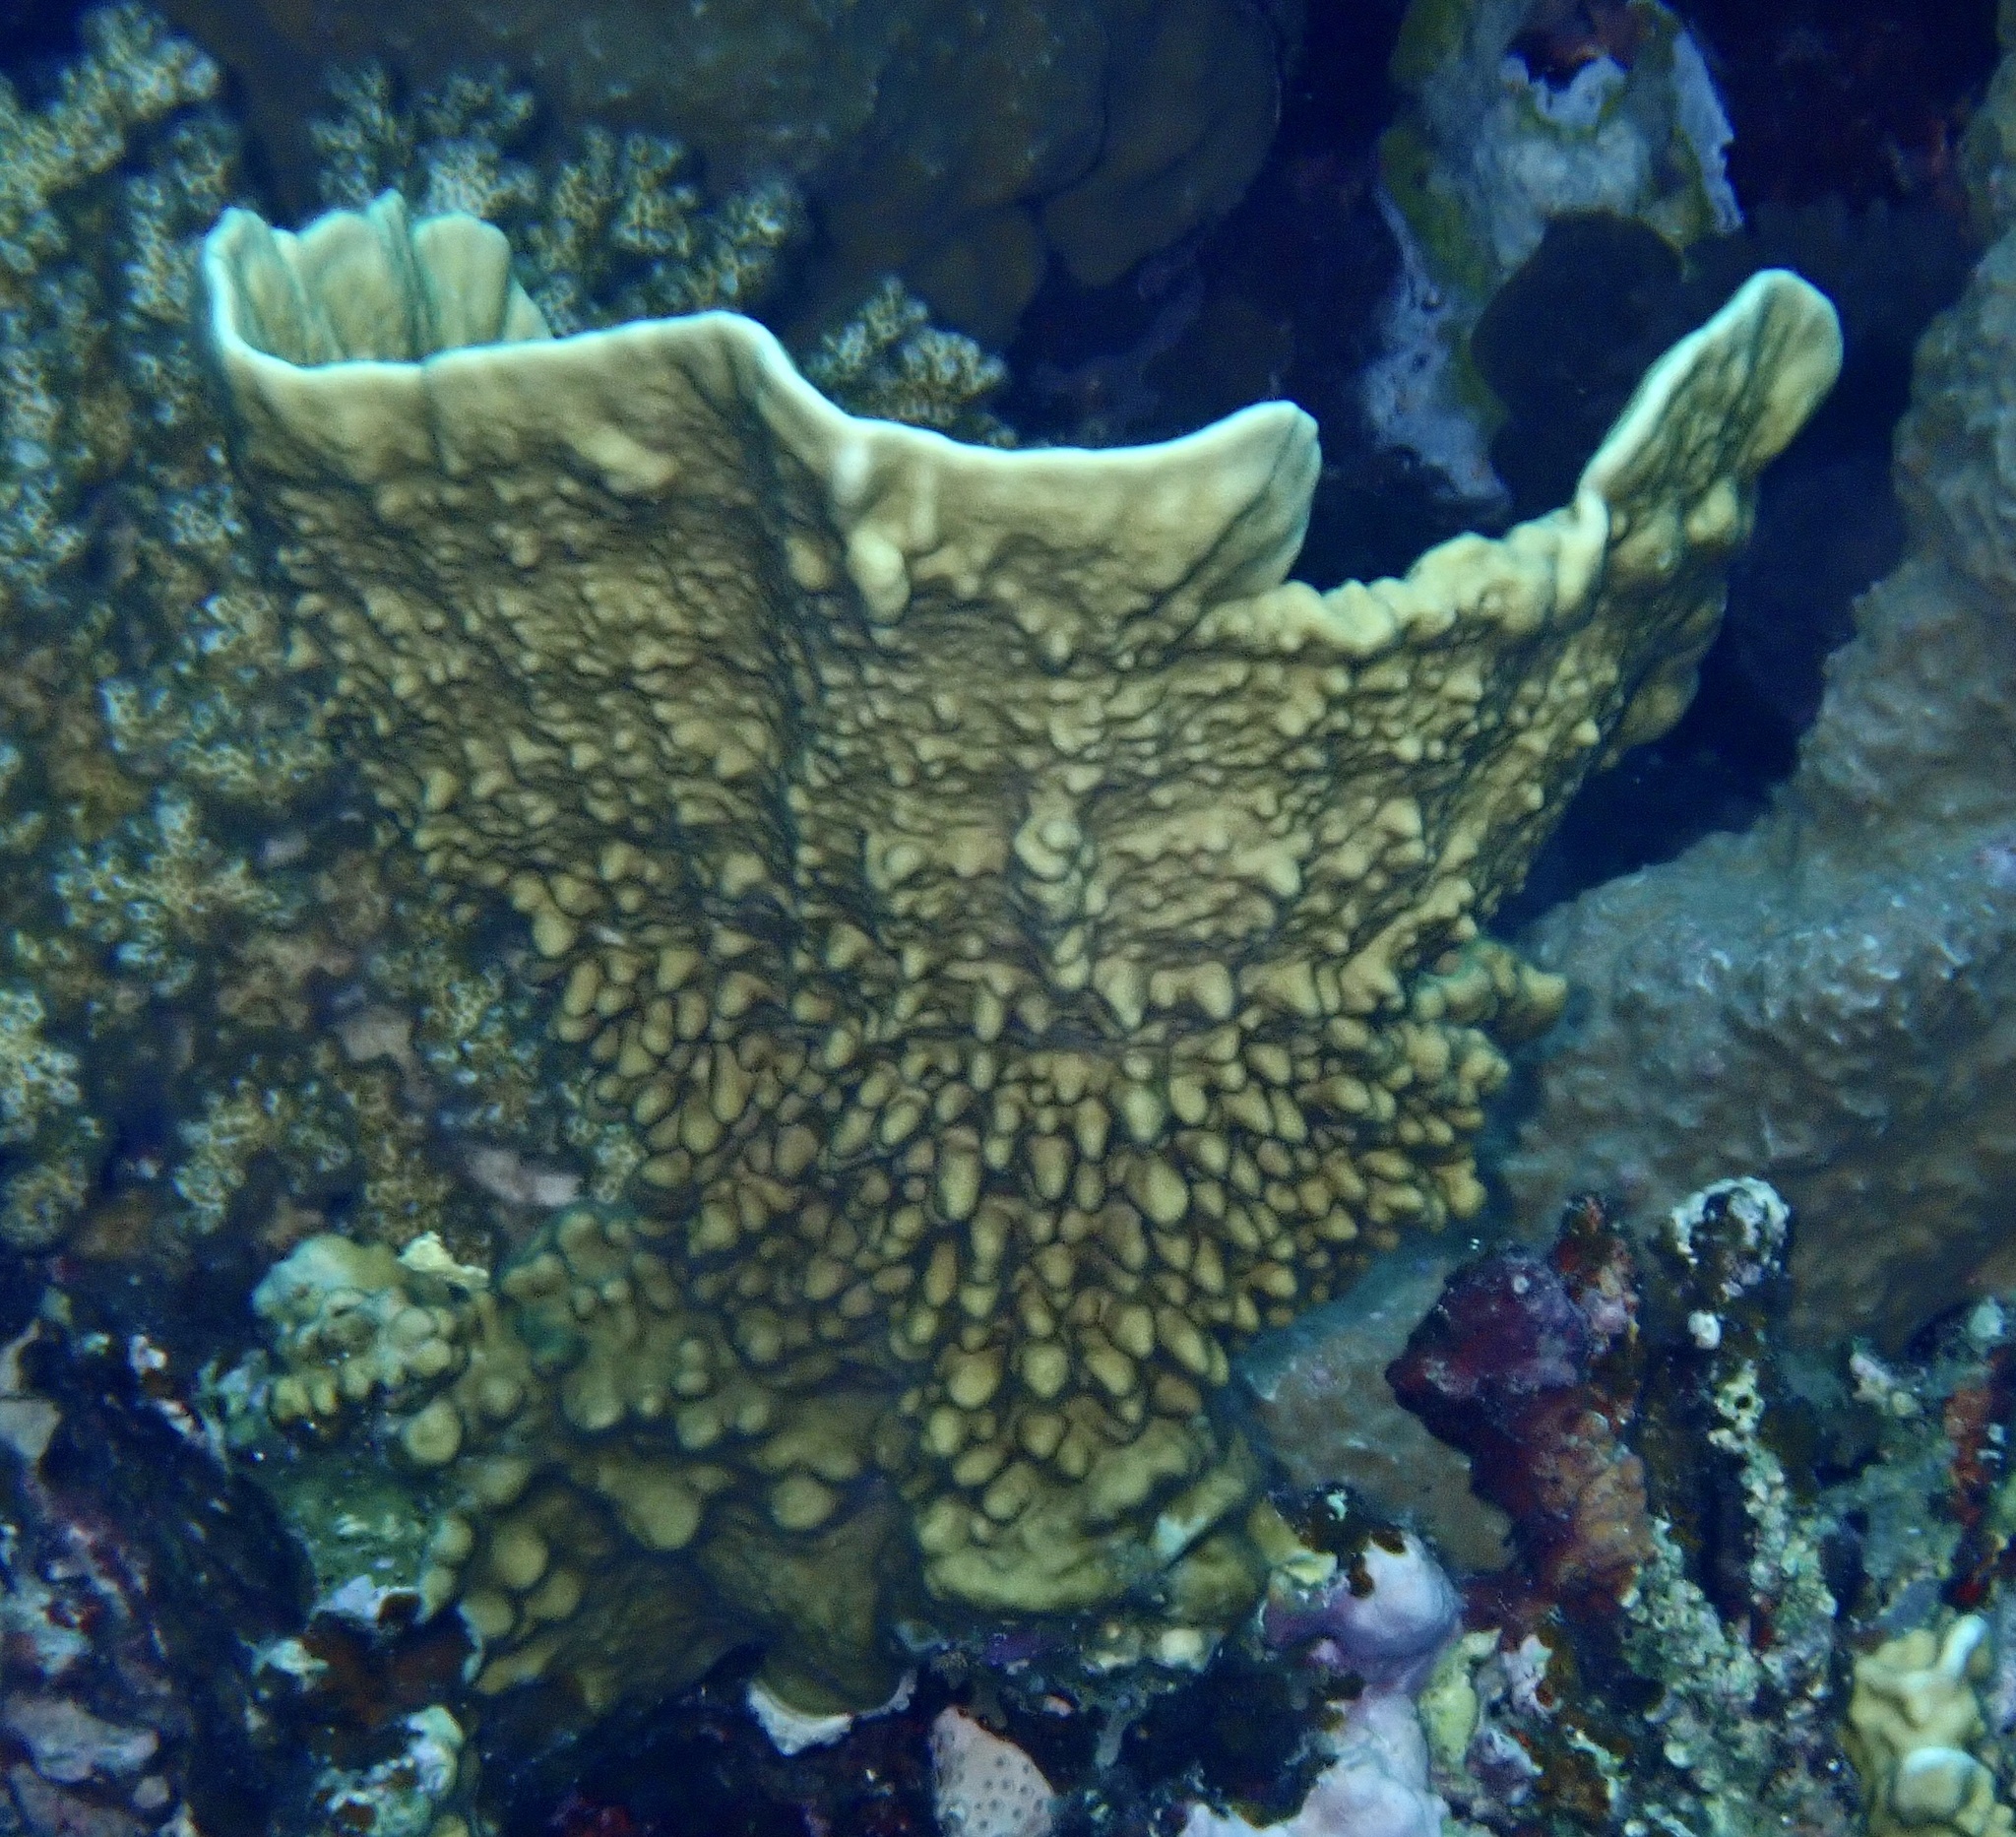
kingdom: Animalia
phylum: Cnidaria
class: Hydrozoa
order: Anthoathecata
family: Milleporidae
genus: Millepora
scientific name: Millepora platyphylla
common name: Sheet fire coral
